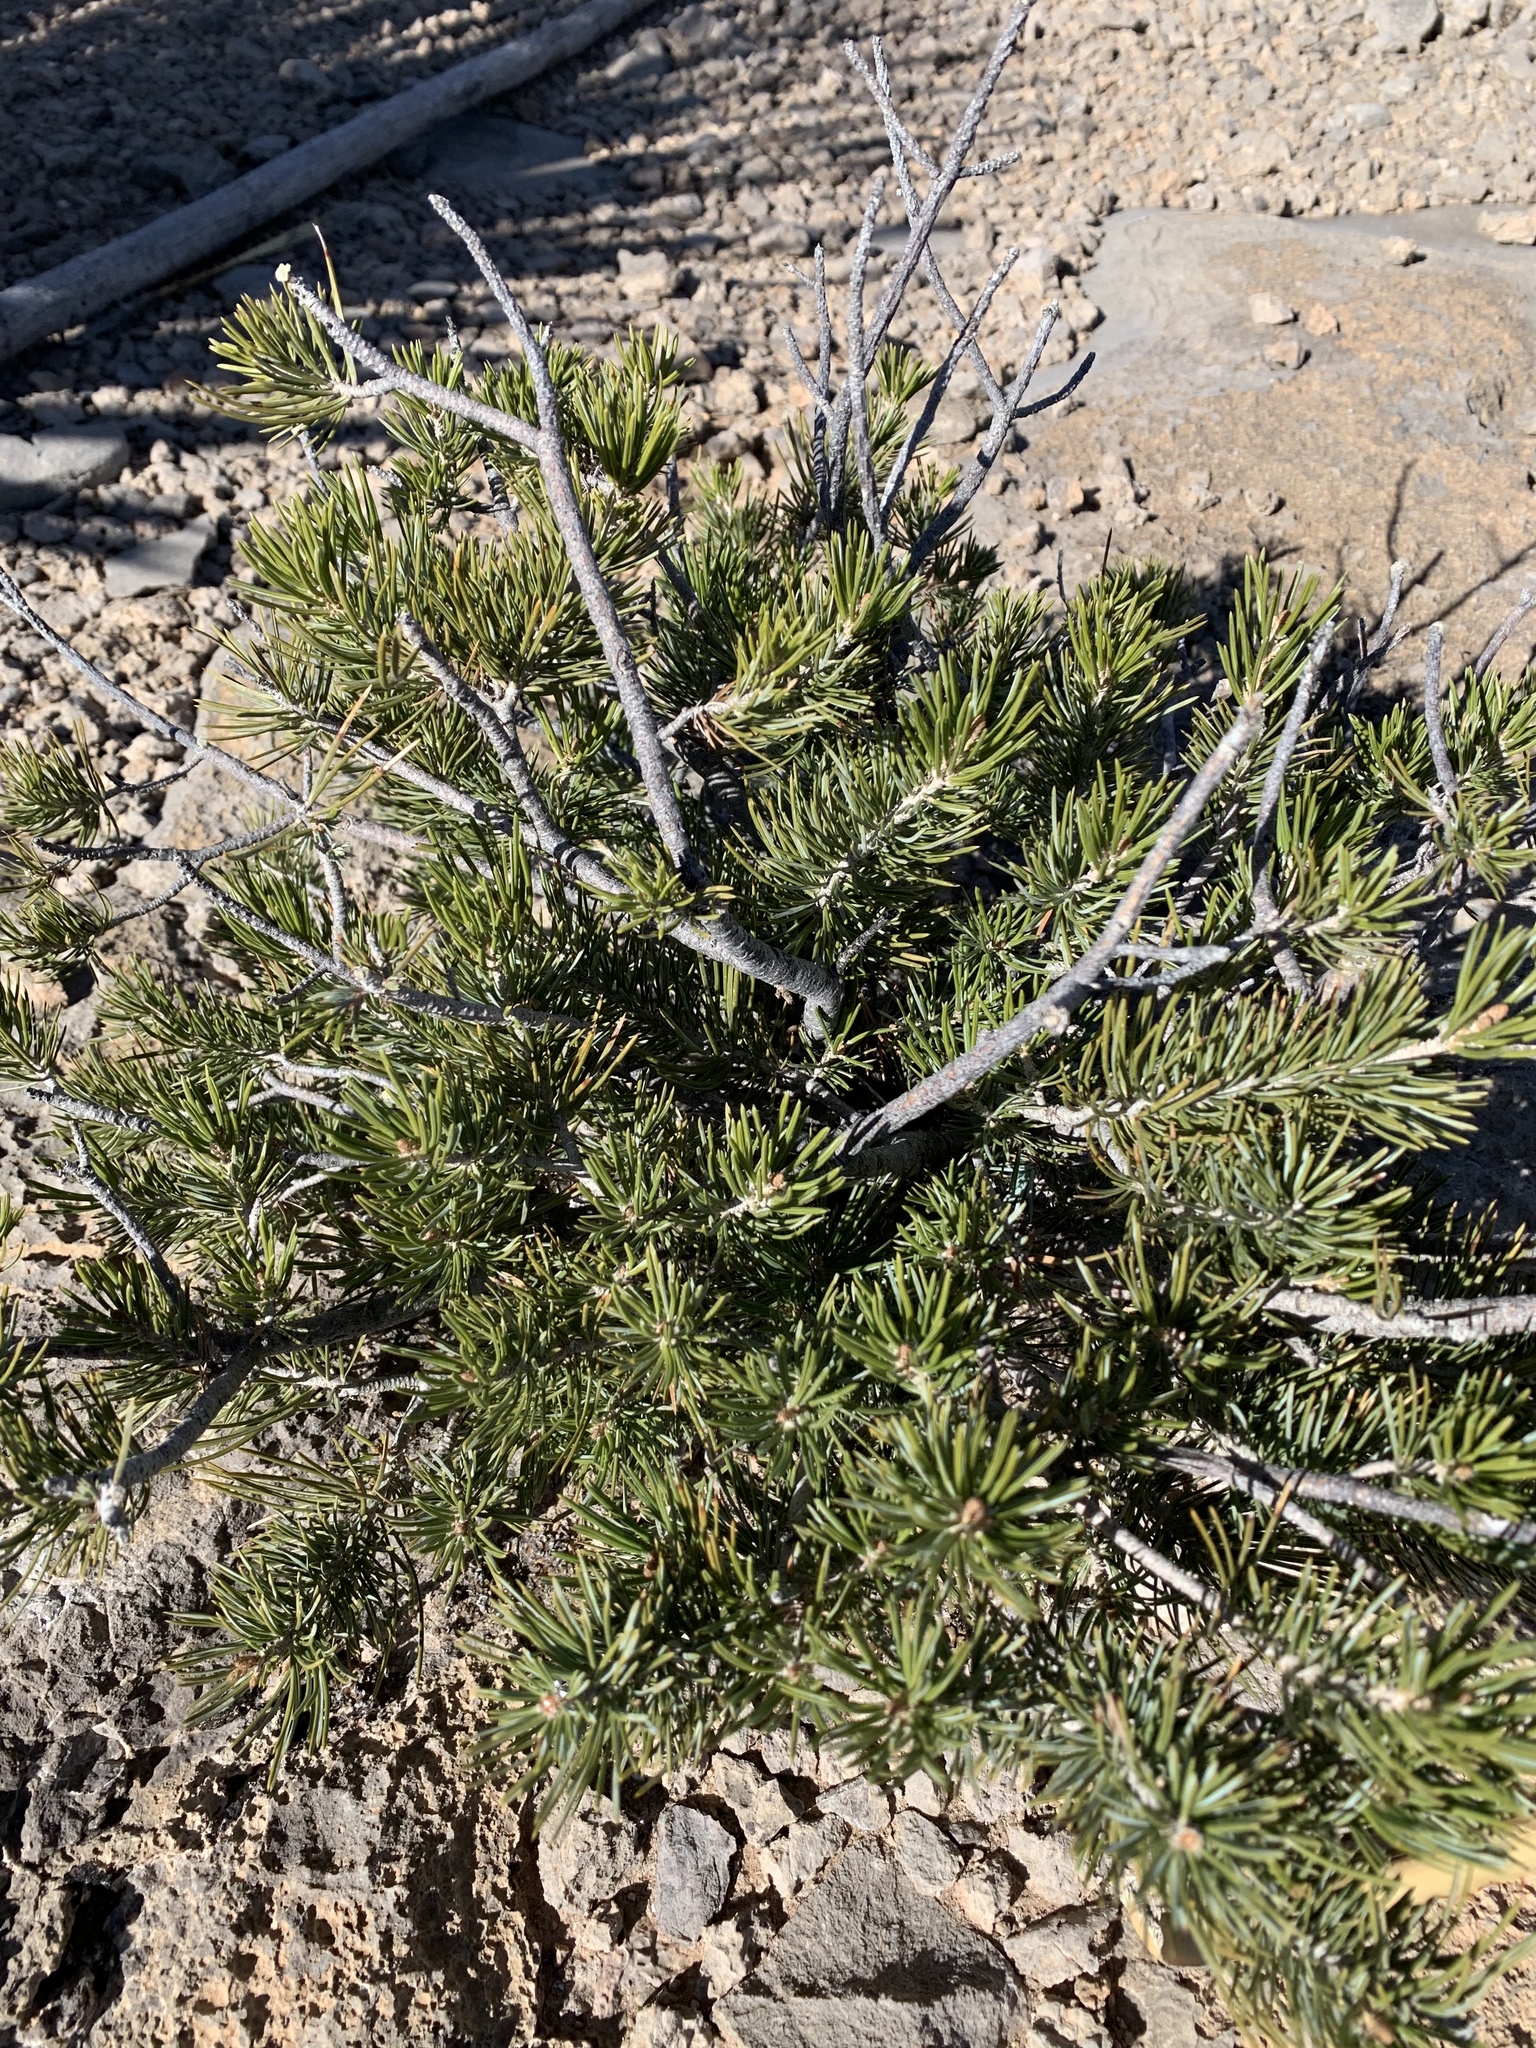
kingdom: Plantae
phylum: Tracheophyta
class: Pinopsida
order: Pinales
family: Pinaceae
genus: Pinus
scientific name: Pinus edulis
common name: Colorado pinyon
